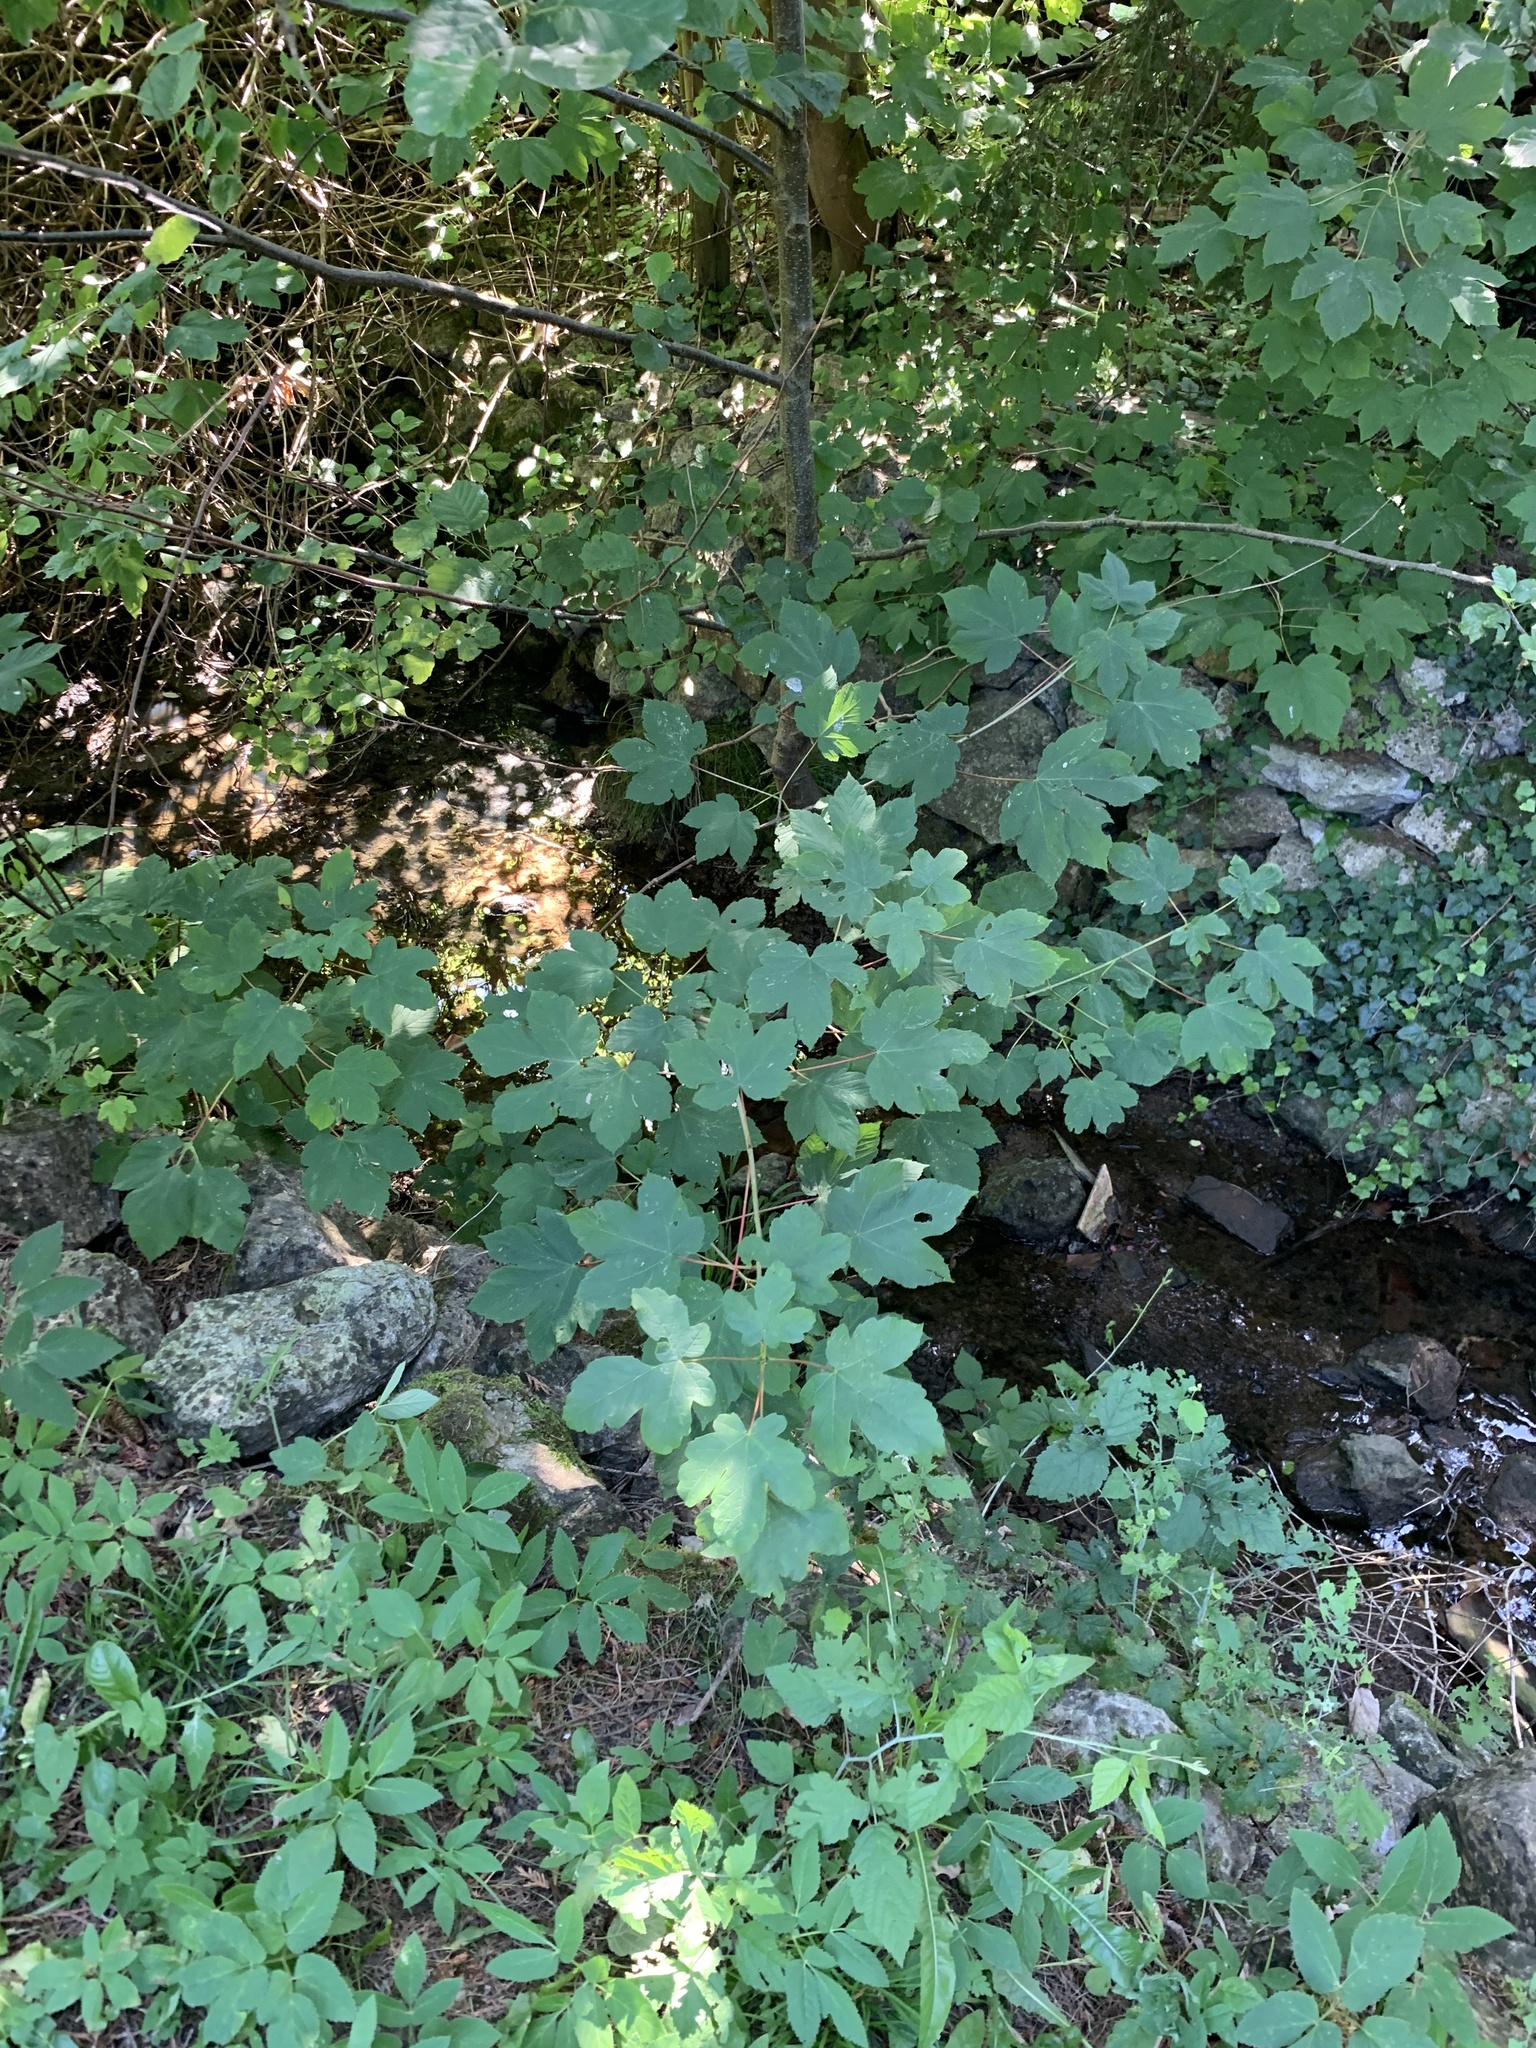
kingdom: Plantae
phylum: Tracheophyta
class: Magnoliopsida
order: Sapindales
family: Sapindaceae
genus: Acer
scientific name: Acer pseudoplatanus
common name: Sycamore
